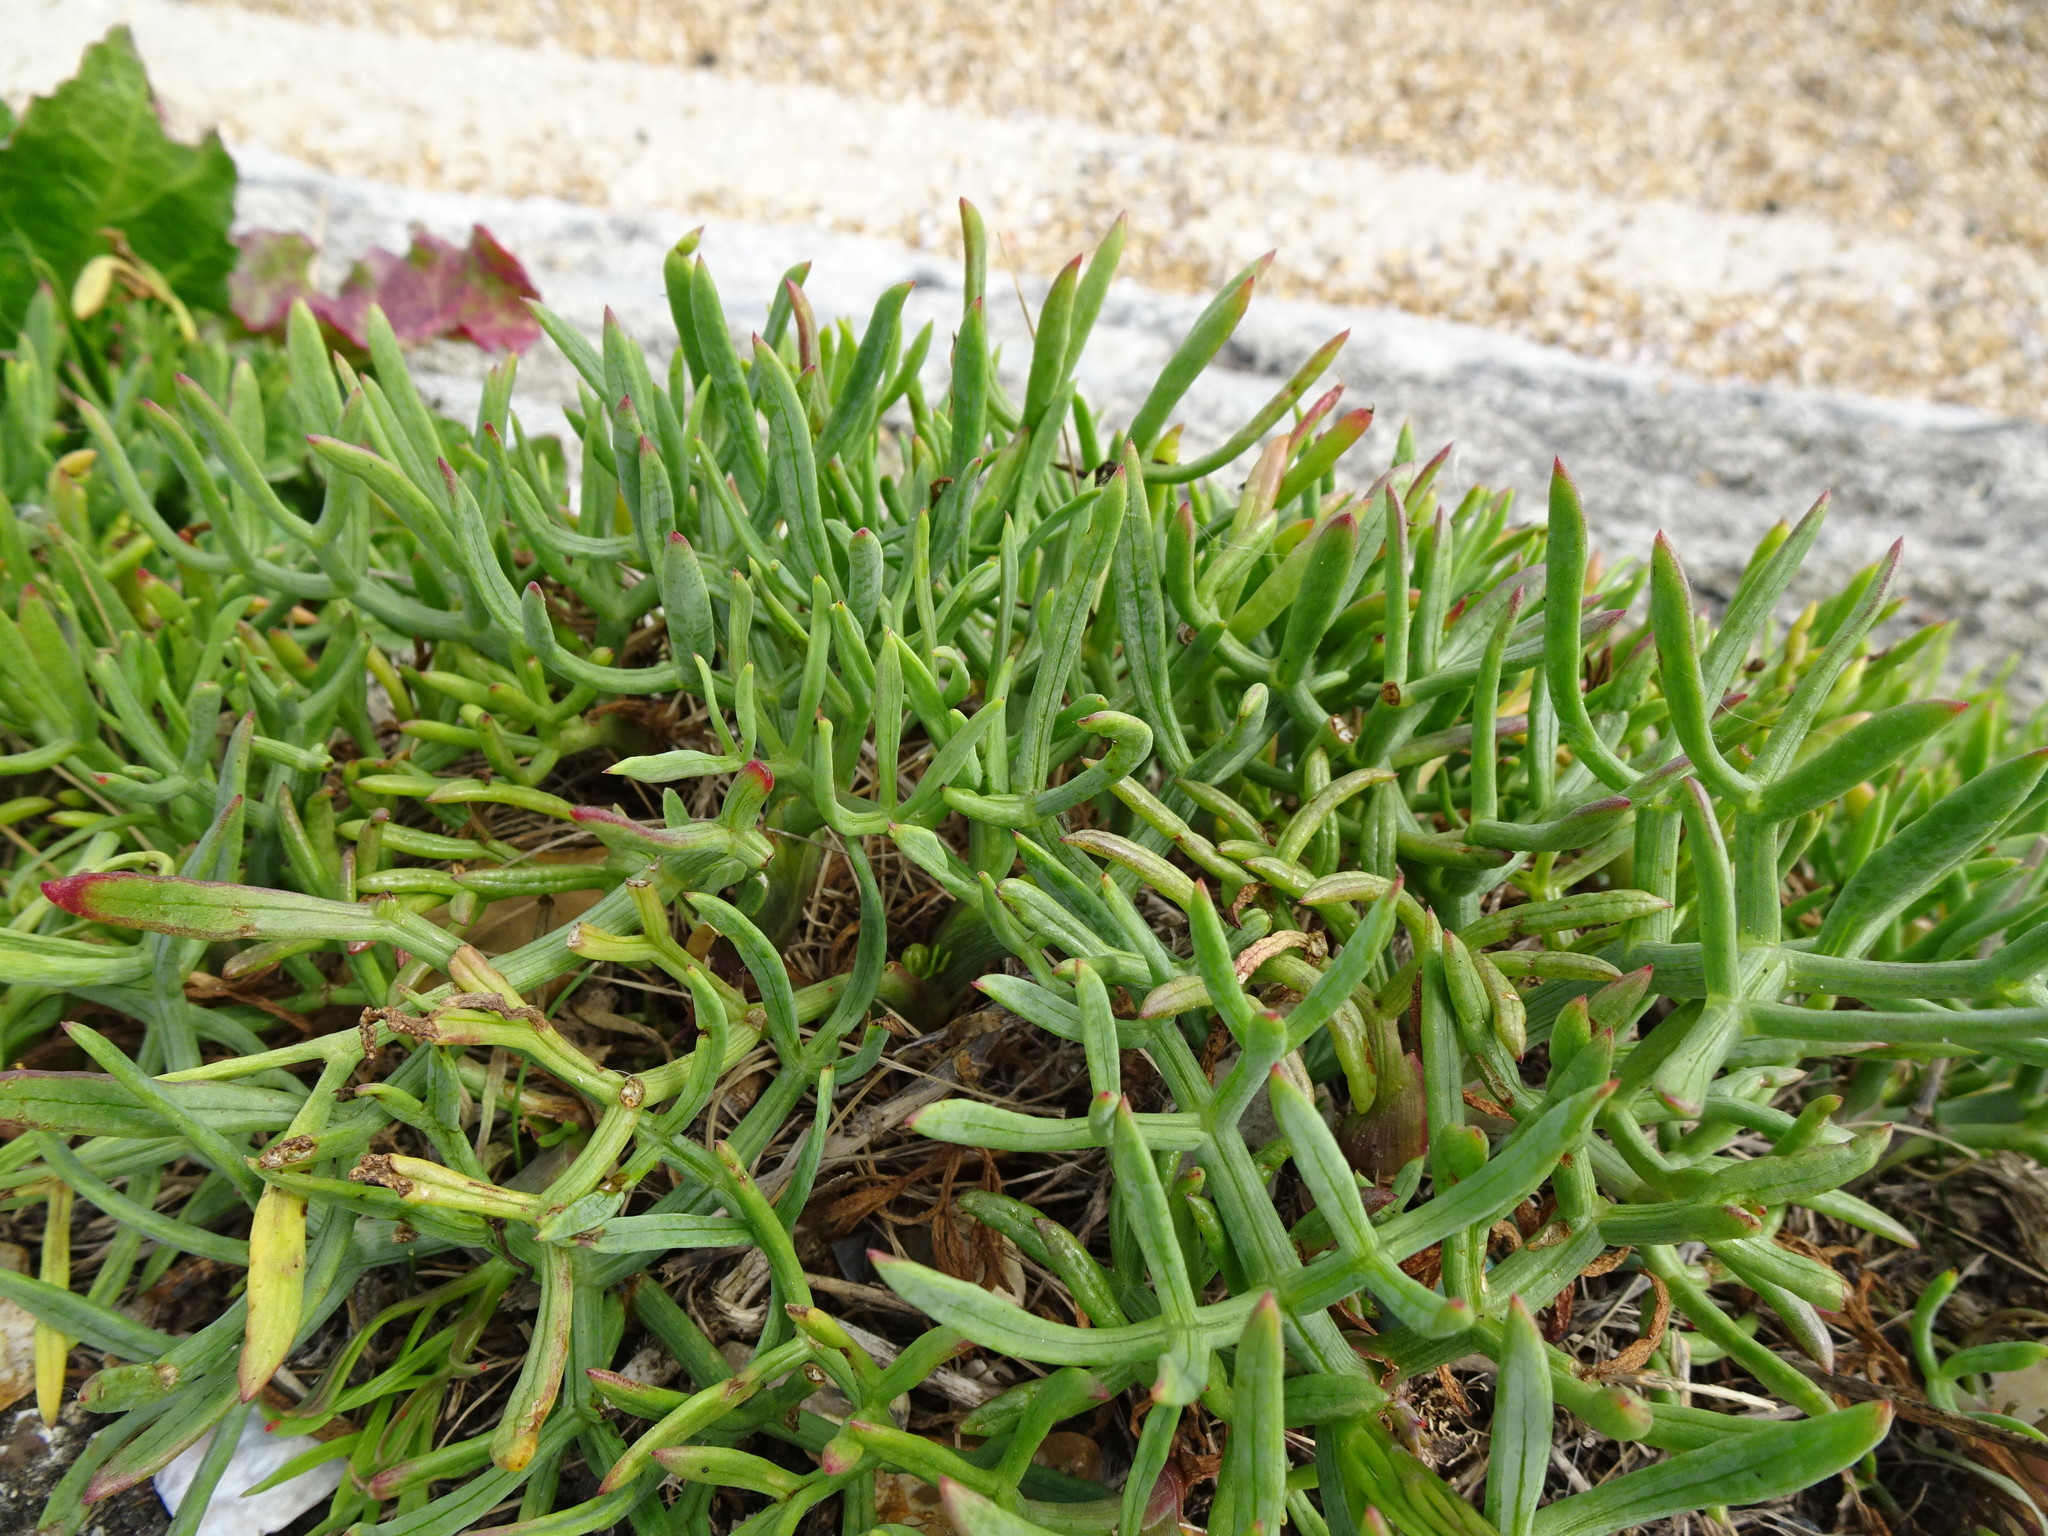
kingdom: Plantae
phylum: Tracheophyta
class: Magnoliopsida
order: Apiales
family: Apiaceae
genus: Crithmum
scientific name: Crithmum maritimum
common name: Rock samphire
